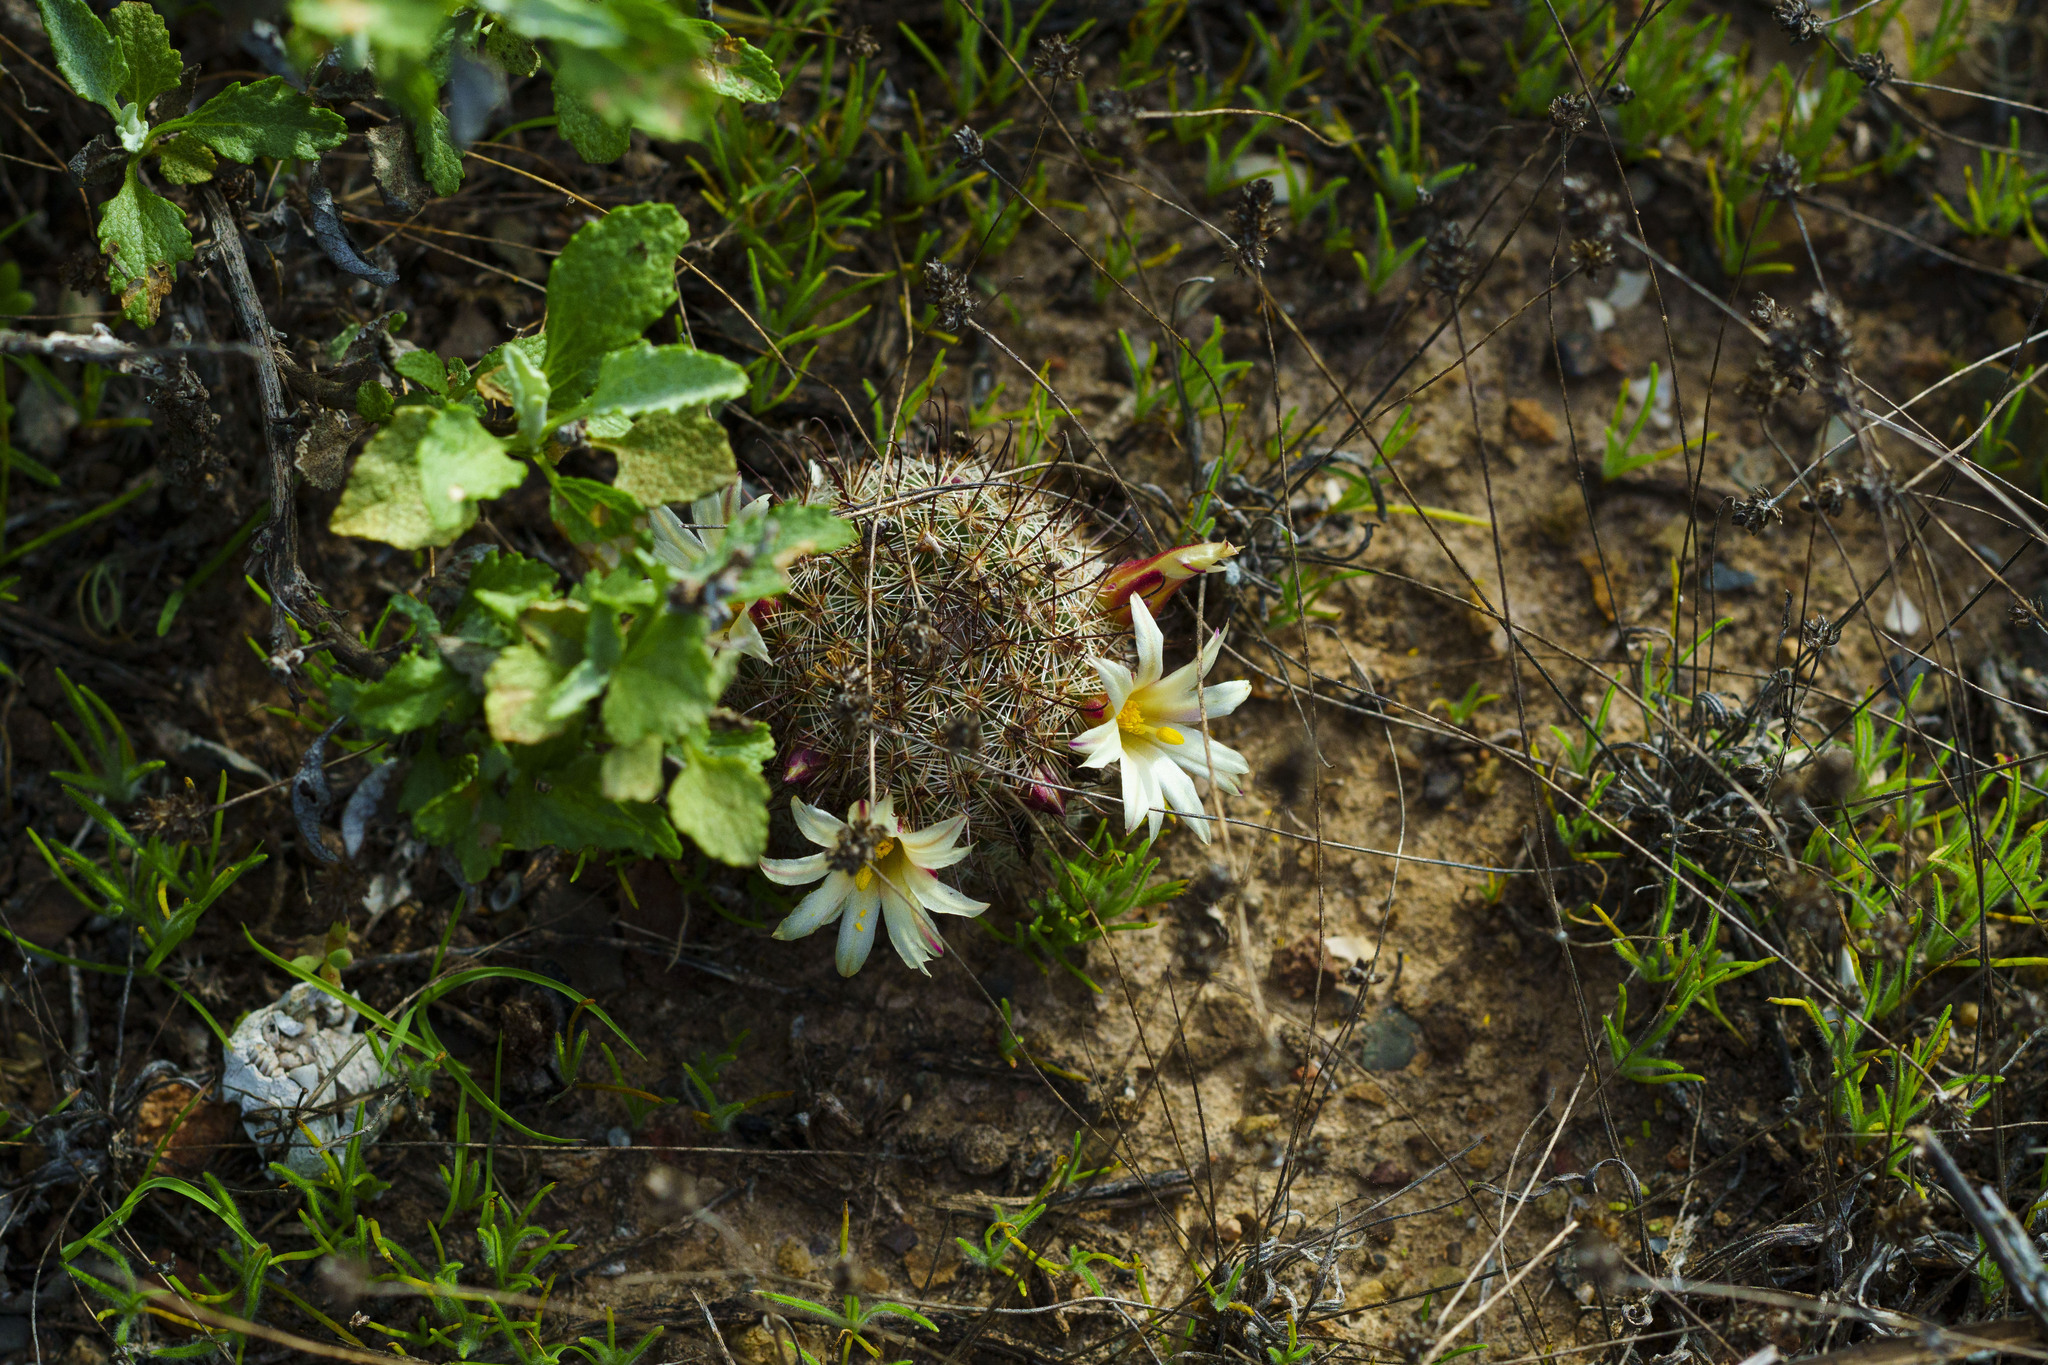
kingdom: Plantae
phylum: Tracheophyta
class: Magnoliopsida
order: Caryophyllales
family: Cactaceae
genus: Cochemiea
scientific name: Cochemiea dioica
